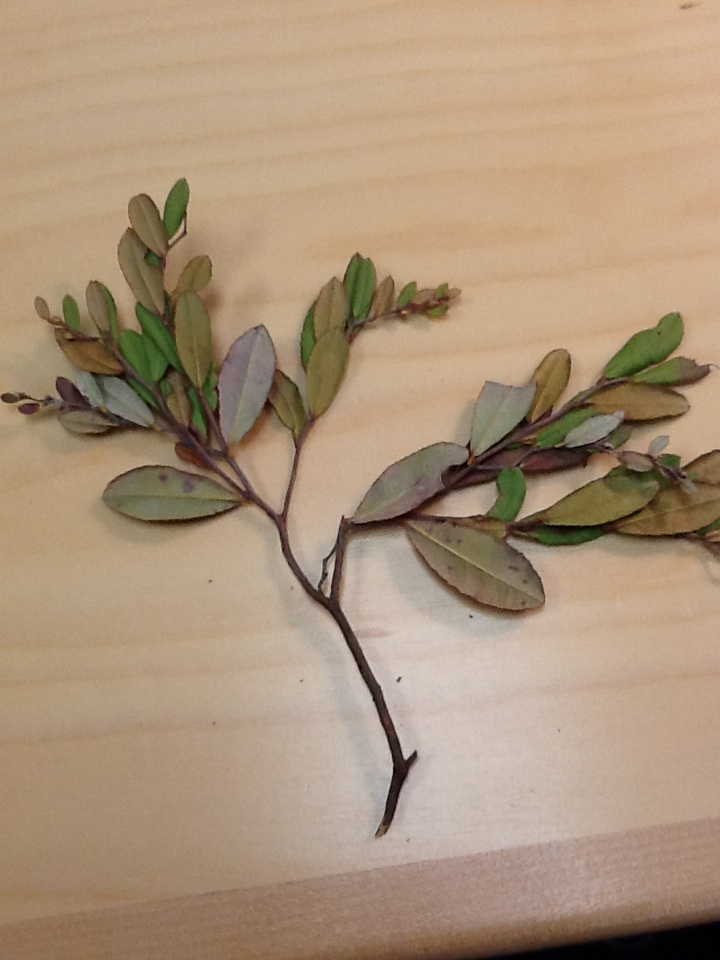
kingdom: Plantae
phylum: Tracheophyta
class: Magnoliopsida
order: Ericales
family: Ericaceae
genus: Chamaedaphne
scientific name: Chamaedaphne calyculata
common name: Leatherleaf
